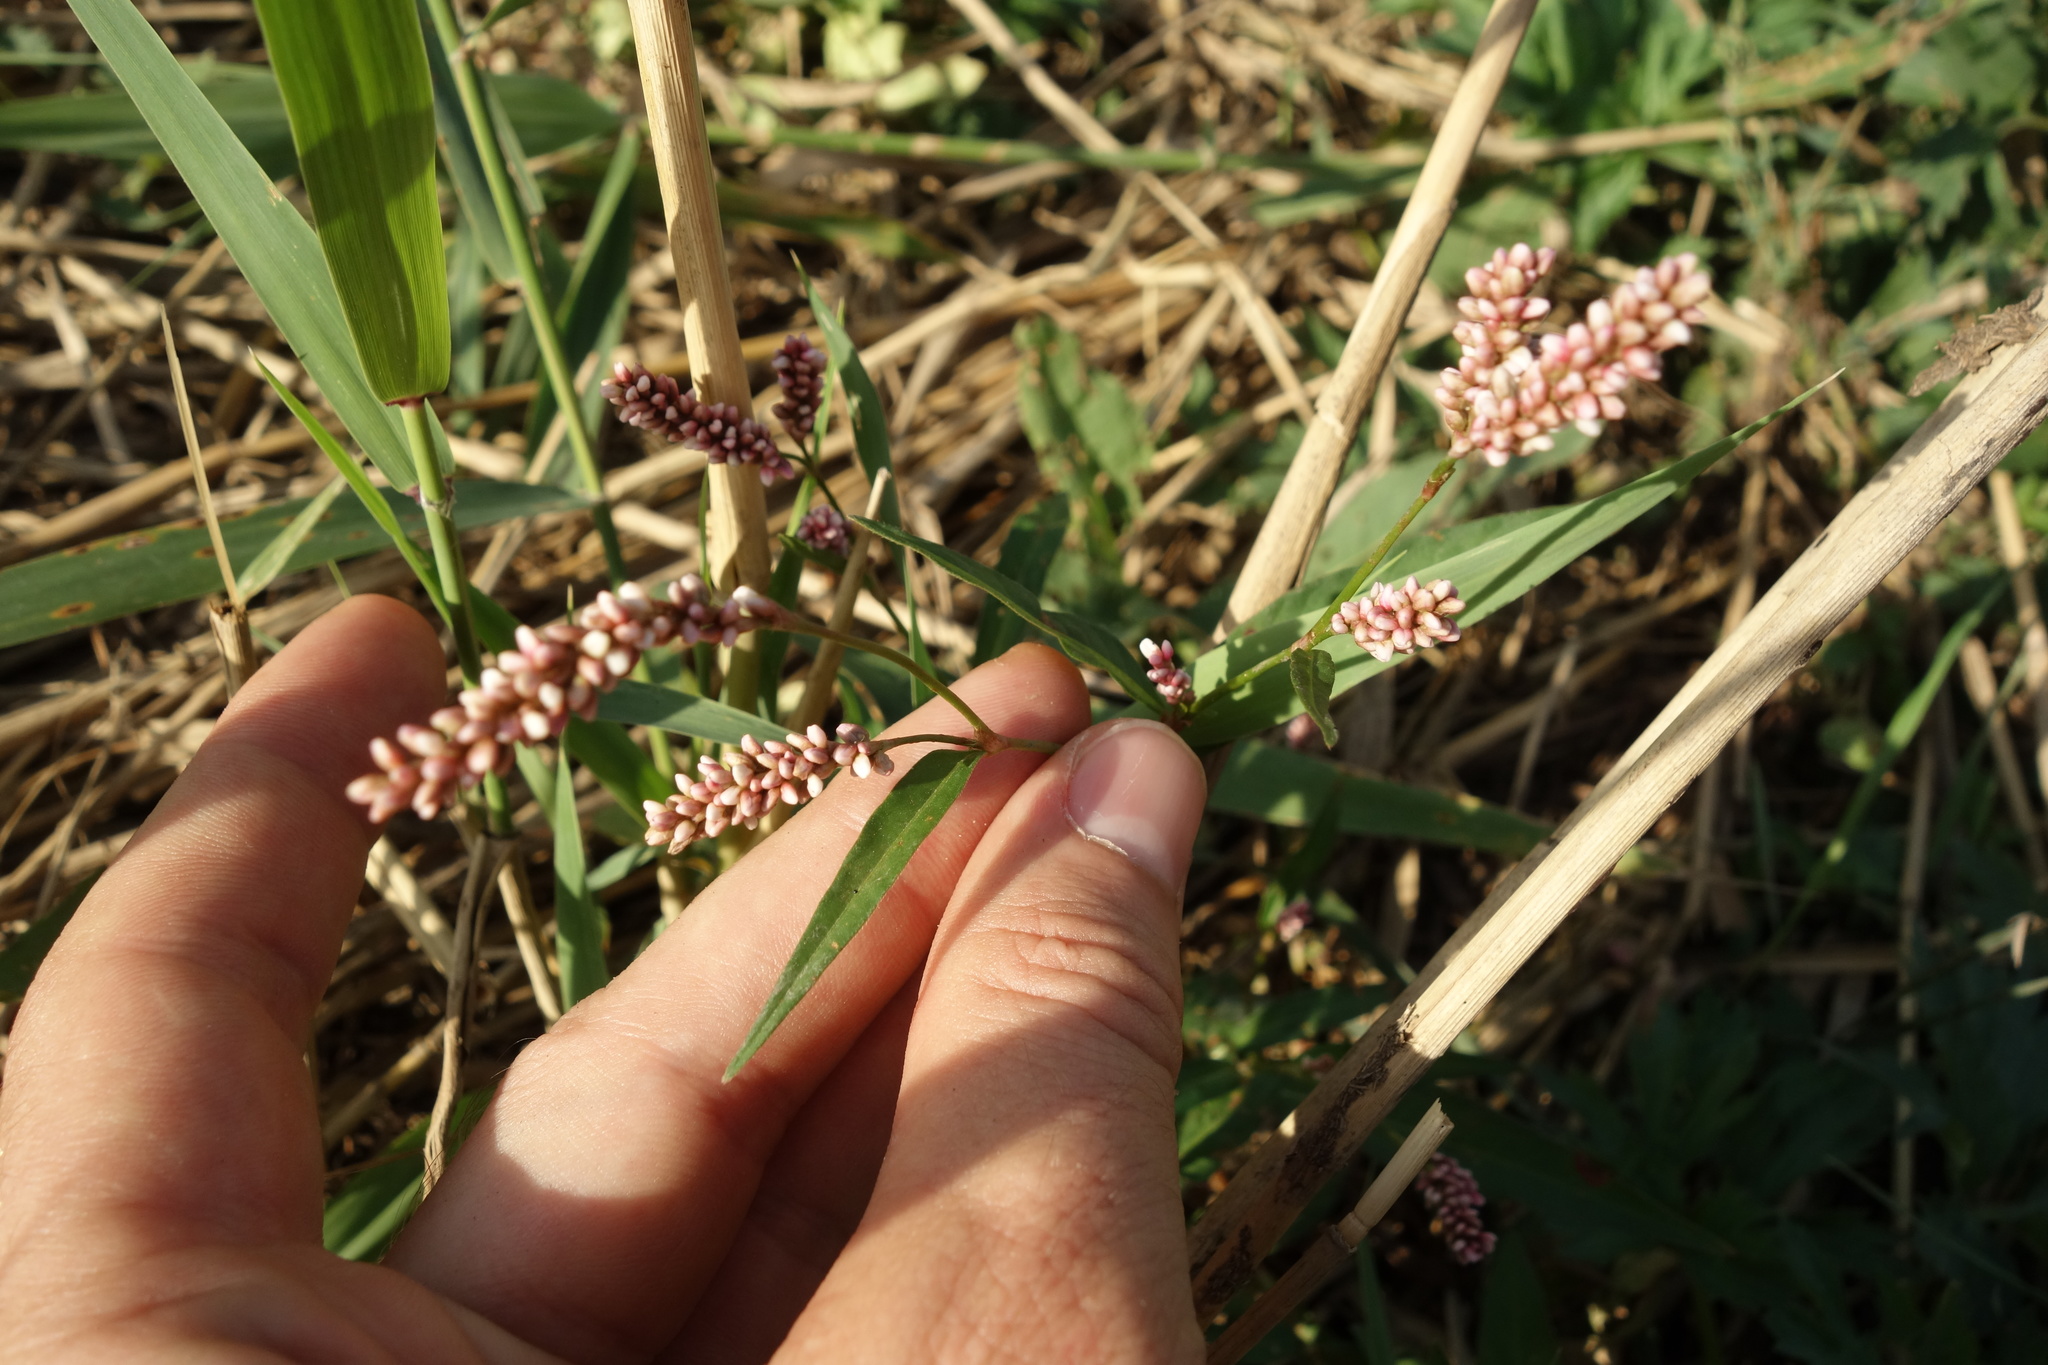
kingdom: Plantae
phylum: Tracheophyta
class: Magnoliopsida
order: Caryophyllales
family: Polygonaceae
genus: Persicaria
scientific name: Persicaria maculosa
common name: Redshank
